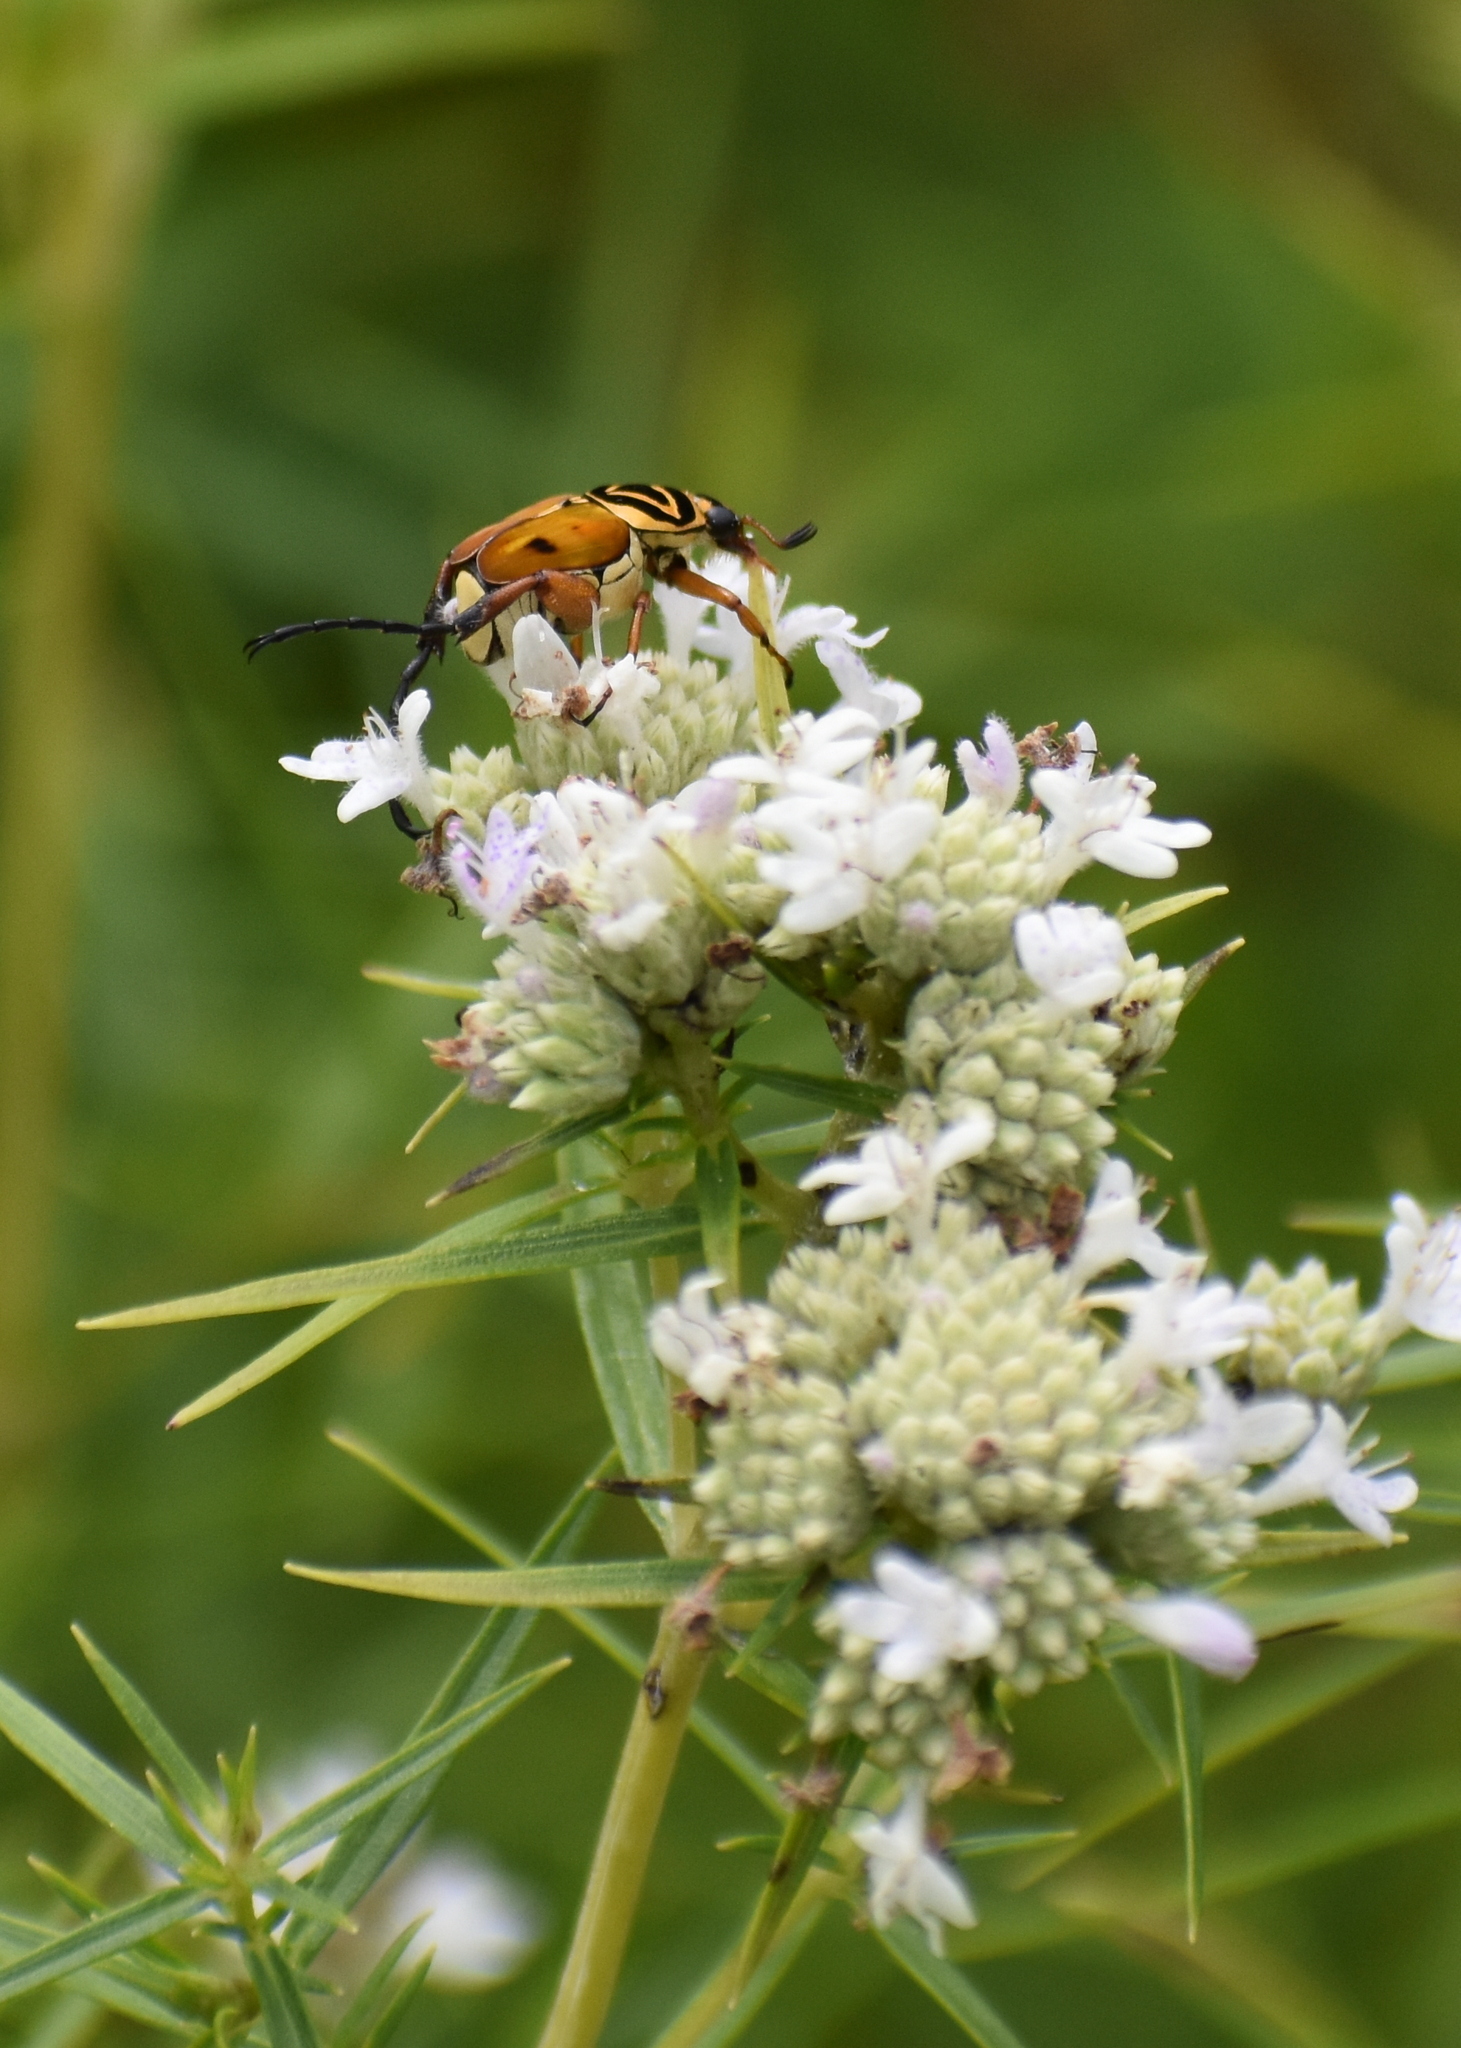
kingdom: Animalia
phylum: Arthropoda
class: Insecta
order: Coleoptera
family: Scarabaeidae
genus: Trigonopeltastes
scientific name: Trigonopeltastes delta
